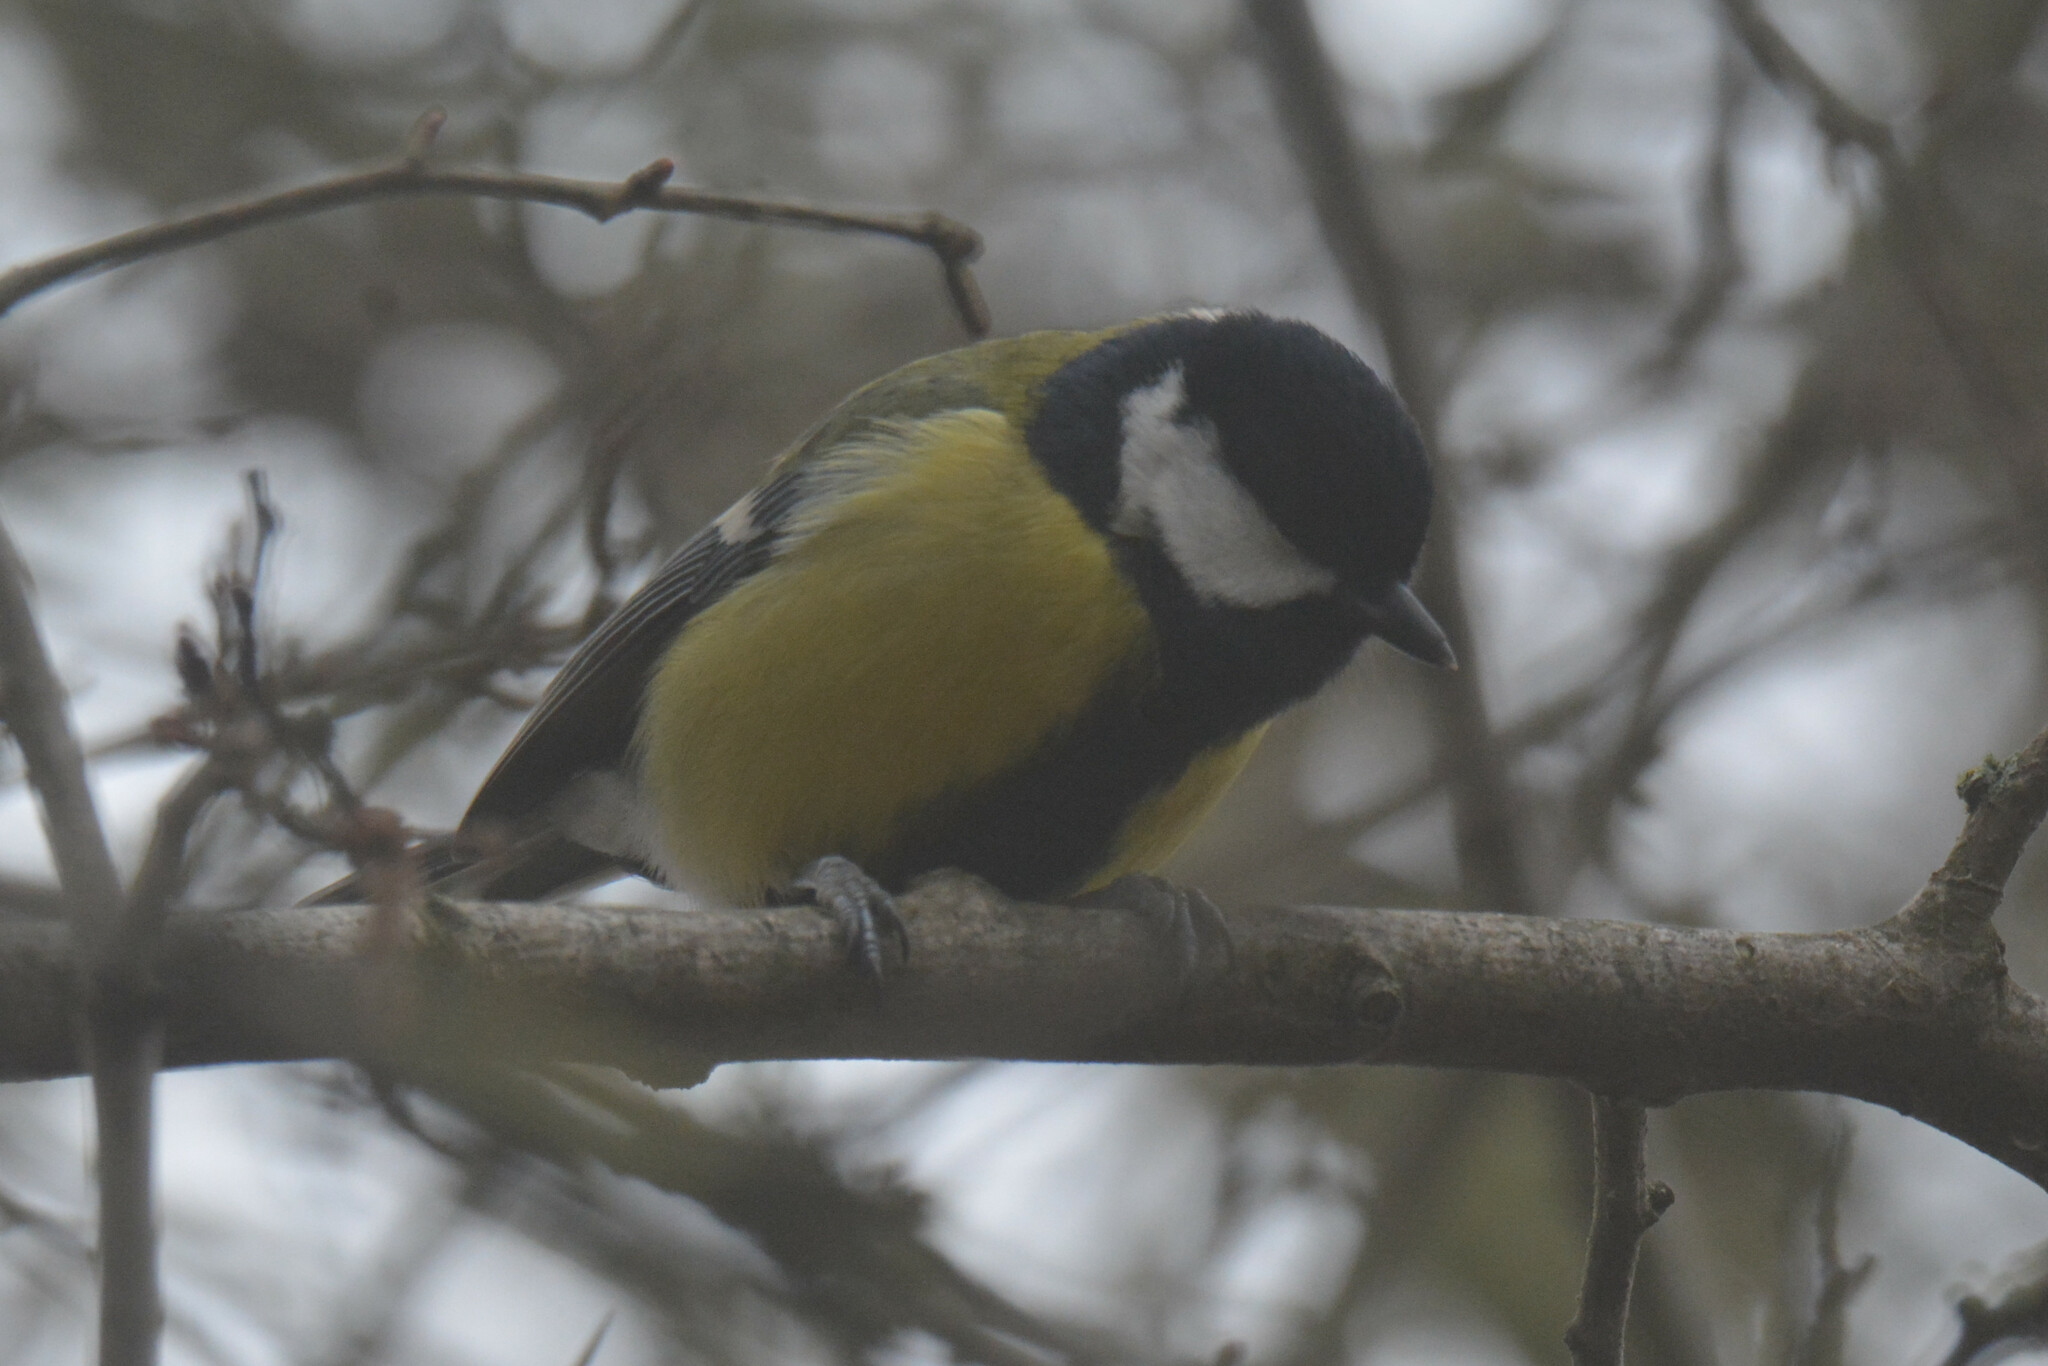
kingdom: Animalia
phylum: Chordata
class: Aves
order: Passeriformes
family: Paridae
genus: Parus
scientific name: Parus major
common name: Great tit
